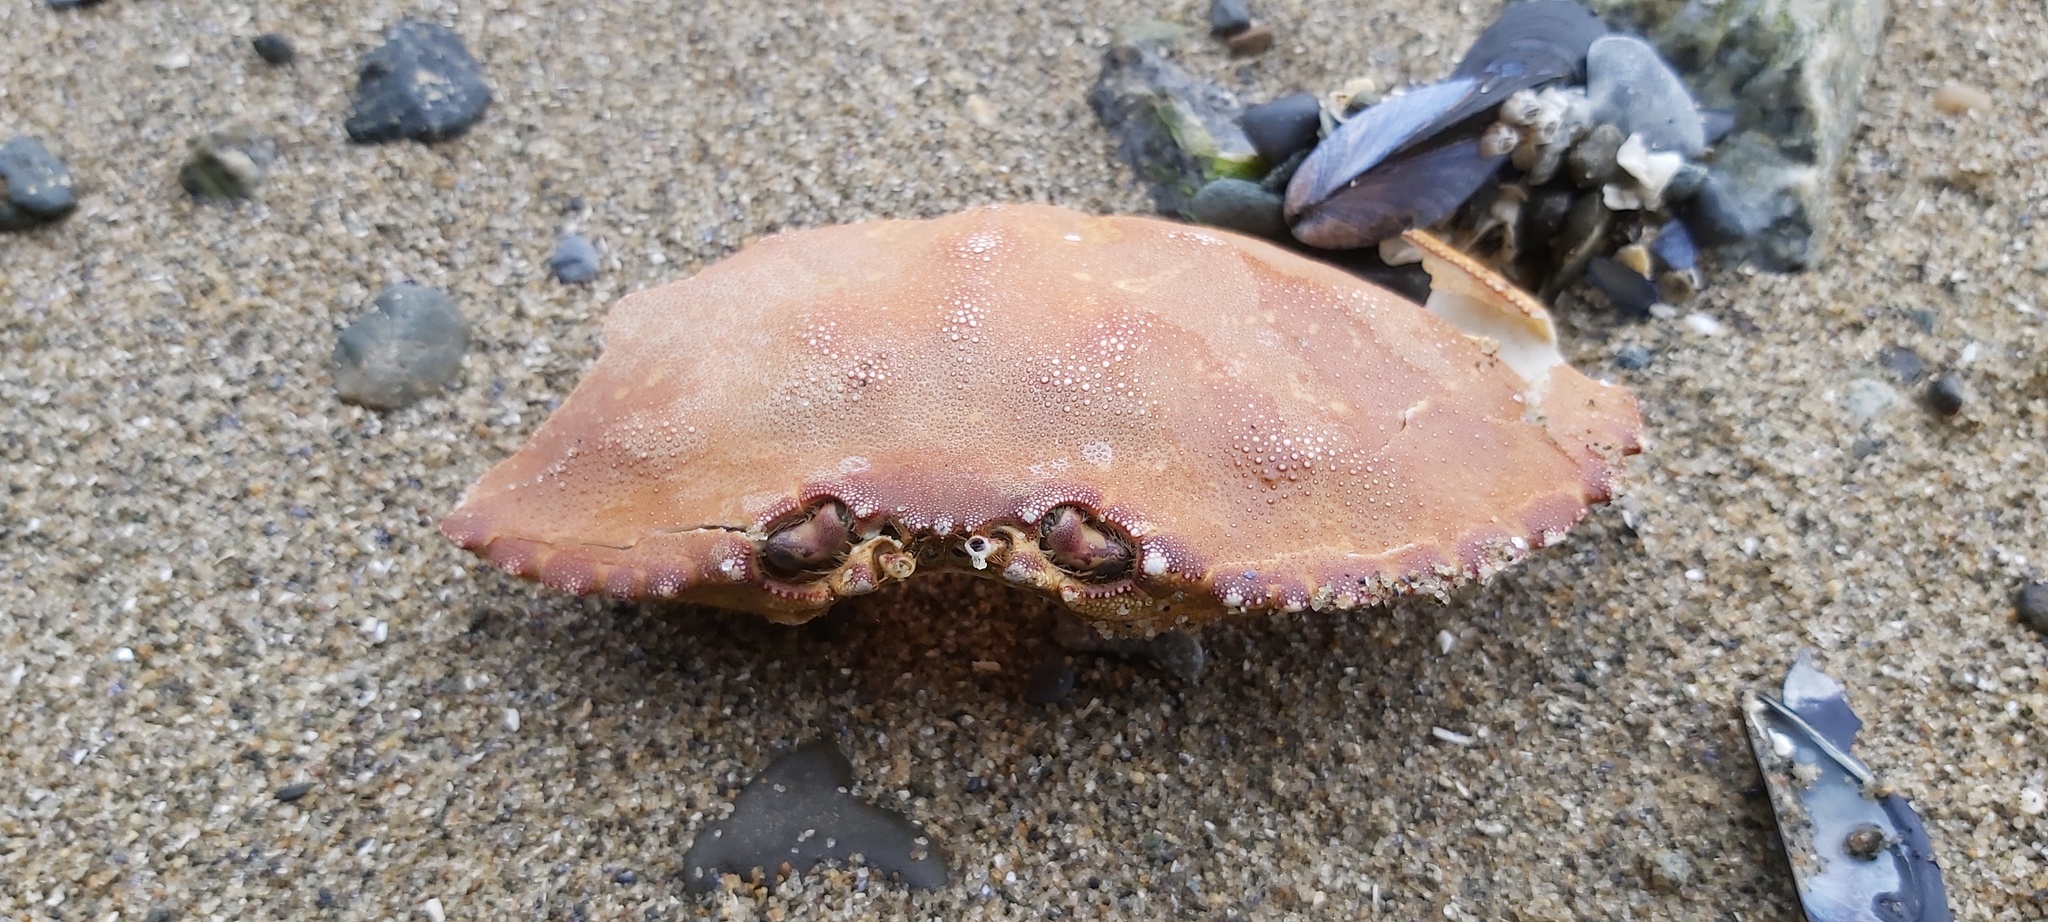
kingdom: Animalia
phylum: Arthropoda
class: Malacostraca
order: Decapoda
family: Cancridae
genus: Metacarcinus
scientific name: Metacarcinus magister
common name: Californian crab
